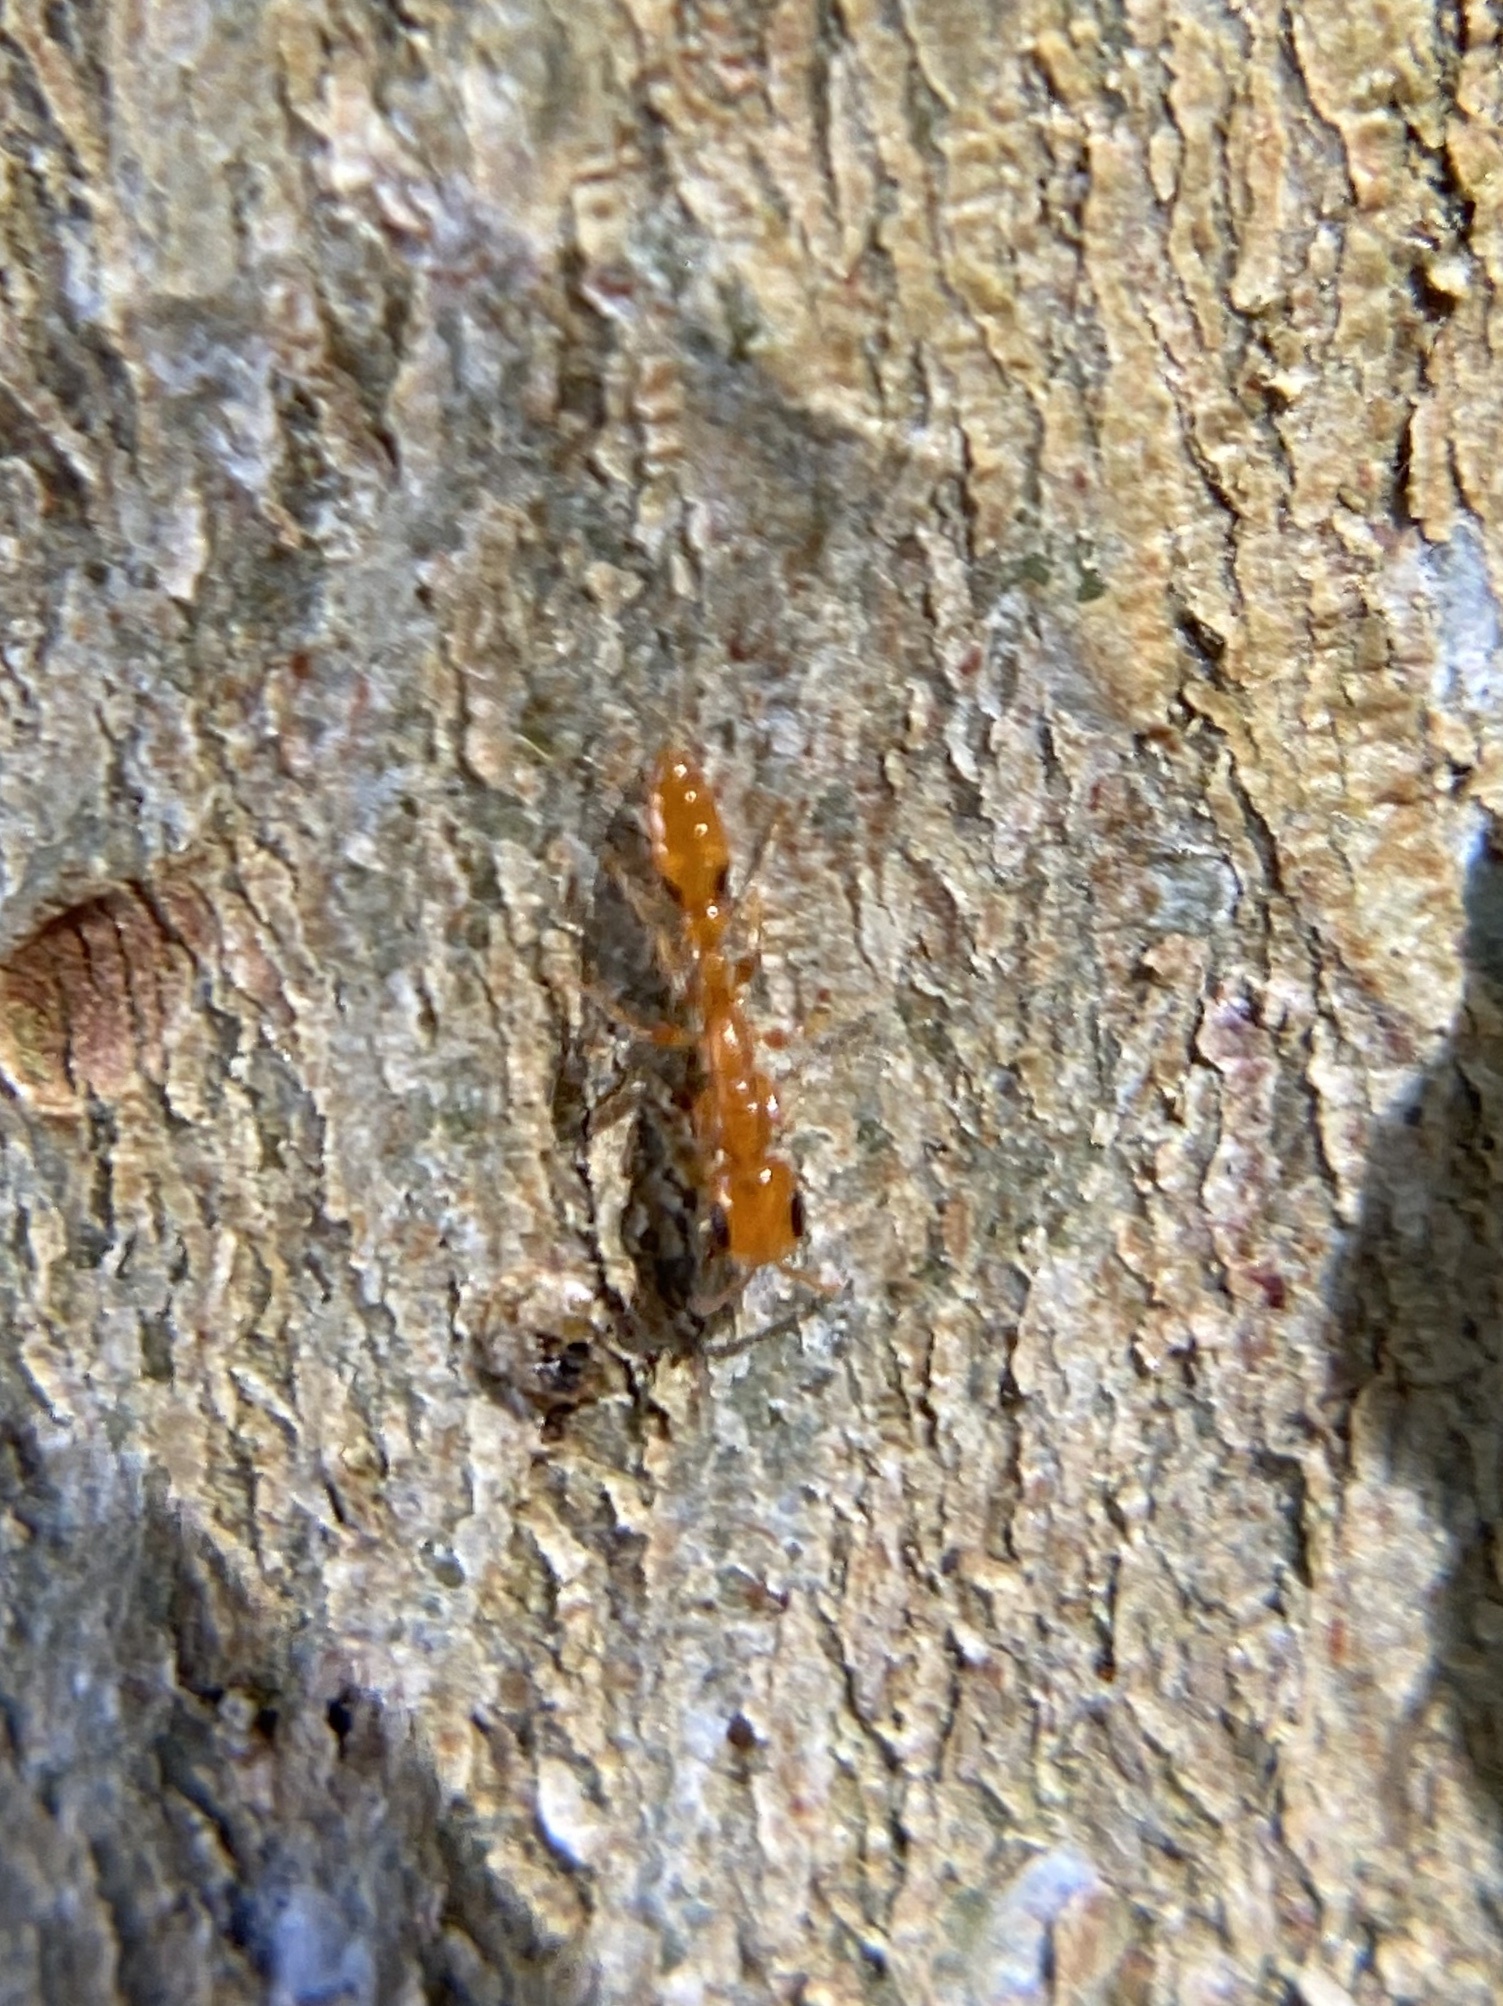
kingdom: Animalia
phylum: Arthropoda
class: Insecta
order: Hymenoptera
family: Formicidae
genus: Pseudomyrmex
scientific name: Pseudomyrmex simplex
